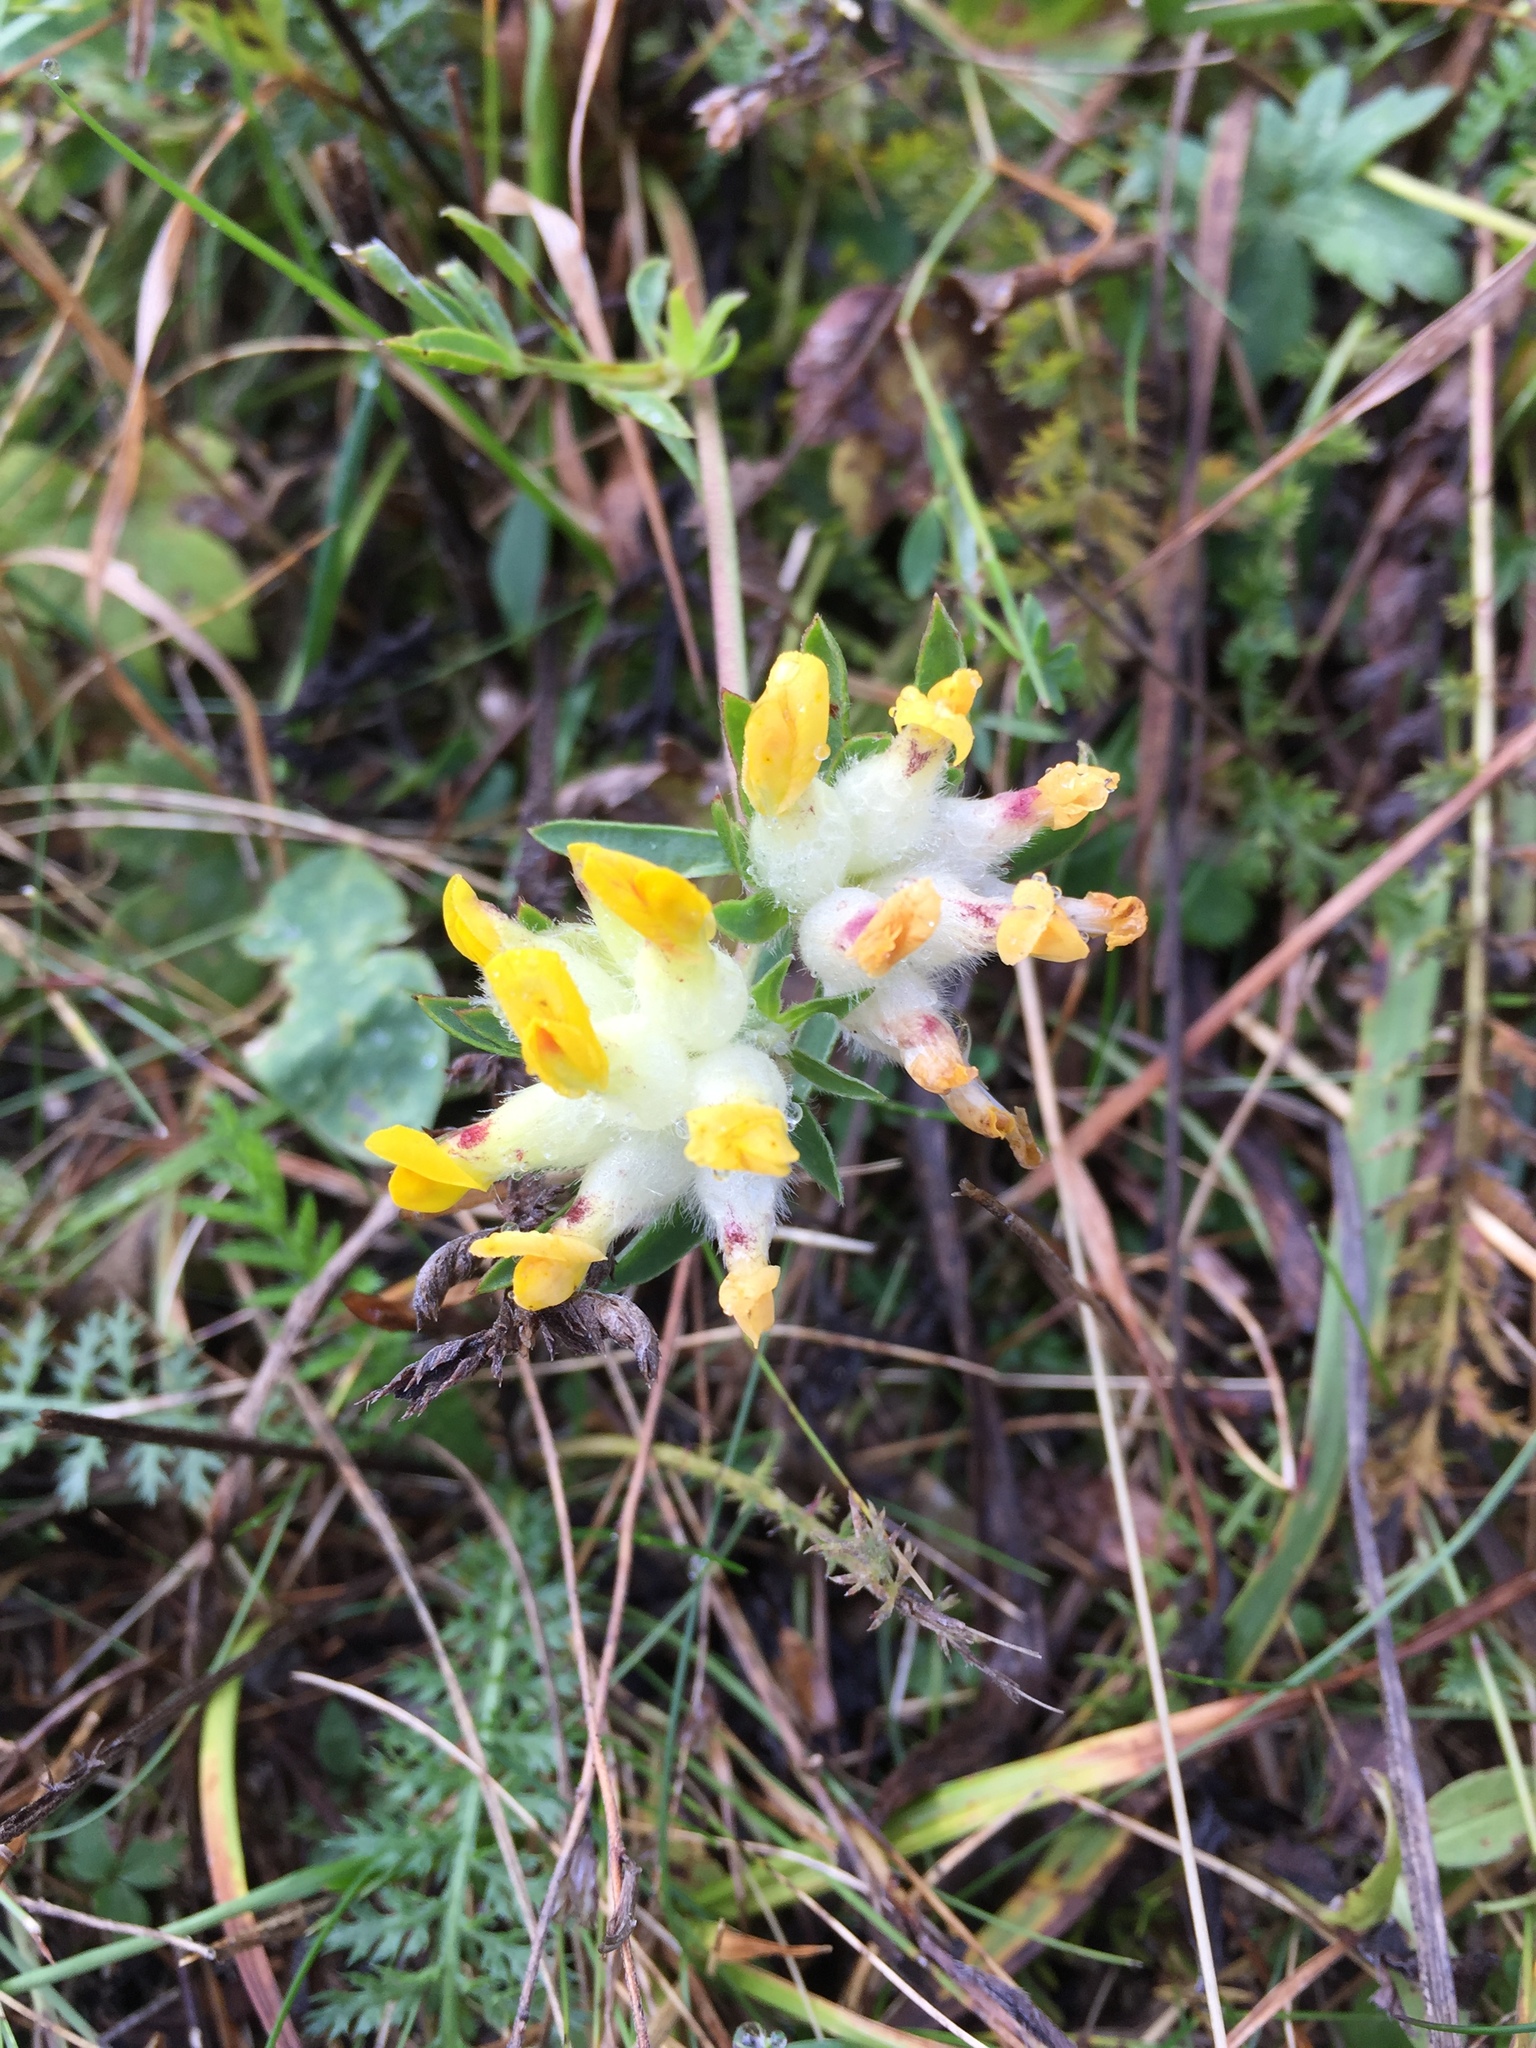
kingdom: Plantae
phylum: Tracheophyta
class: Magnoliopsida
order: Fabales
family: Fabaceae
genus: Anthyllis
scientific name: Anthyllis vulneraria
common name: Kidney vetch
